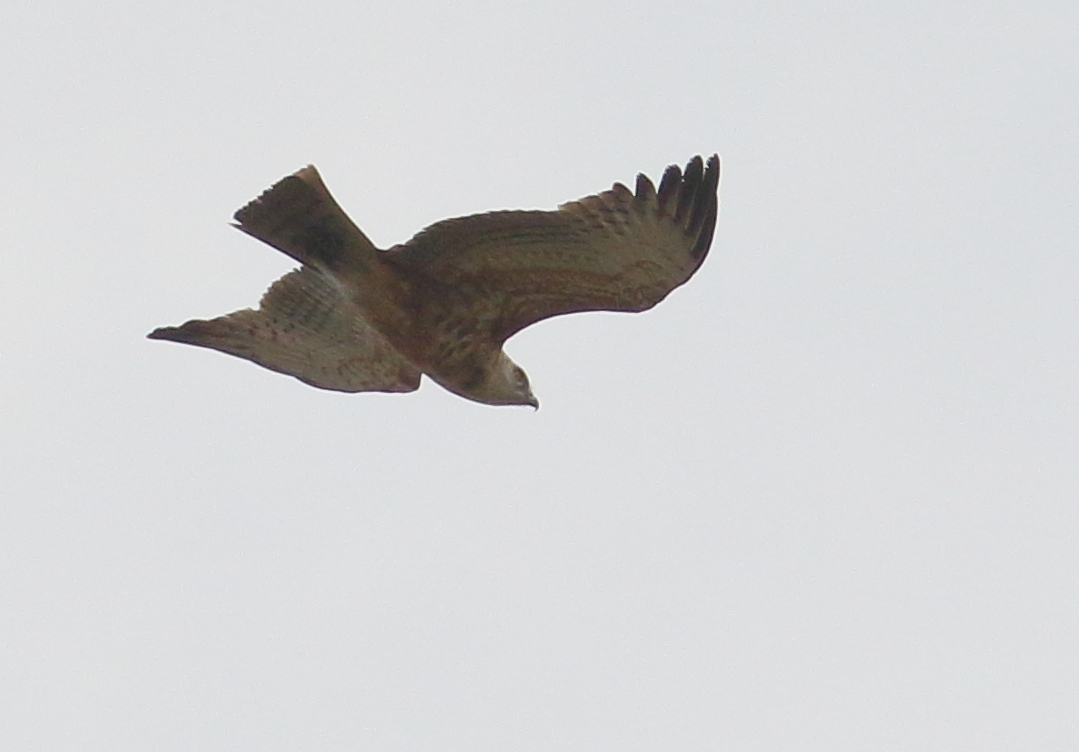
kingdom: Animalia
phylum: Chordata
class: Aves
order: Accipitriformes
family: Accipitridae
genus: Circaetus
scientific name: Circaetus pectoralis
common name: Black-chested snake eagle
